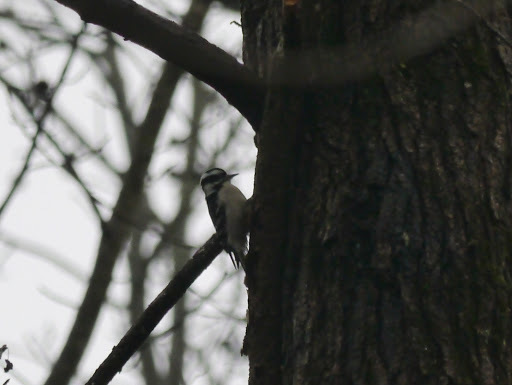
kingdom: Animalia
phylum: Chordata
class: Aves
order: Piciformes
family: Picidae
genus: Dryobates
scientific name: Dryobates pubescens
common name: Downy woodpecker
